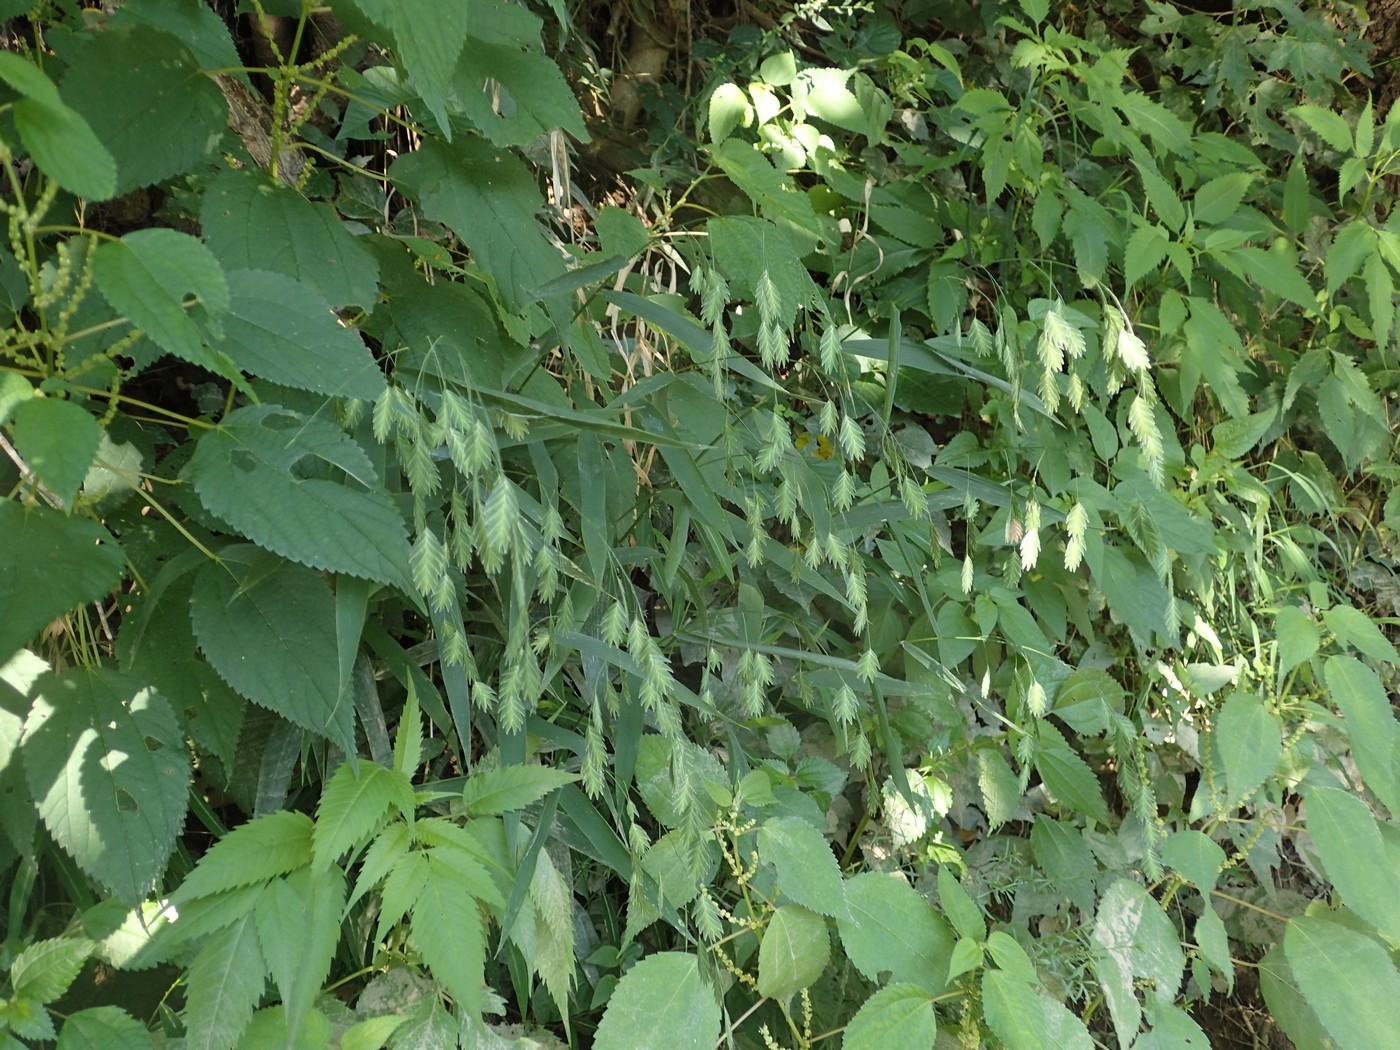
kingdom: Plantae
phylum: Tracheophyta
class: Liliopsida
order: Poales
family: Poaceae
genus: Chasmanthium
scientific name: Chasmanthium latifolium
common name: Broad-leaved chasmanthium
